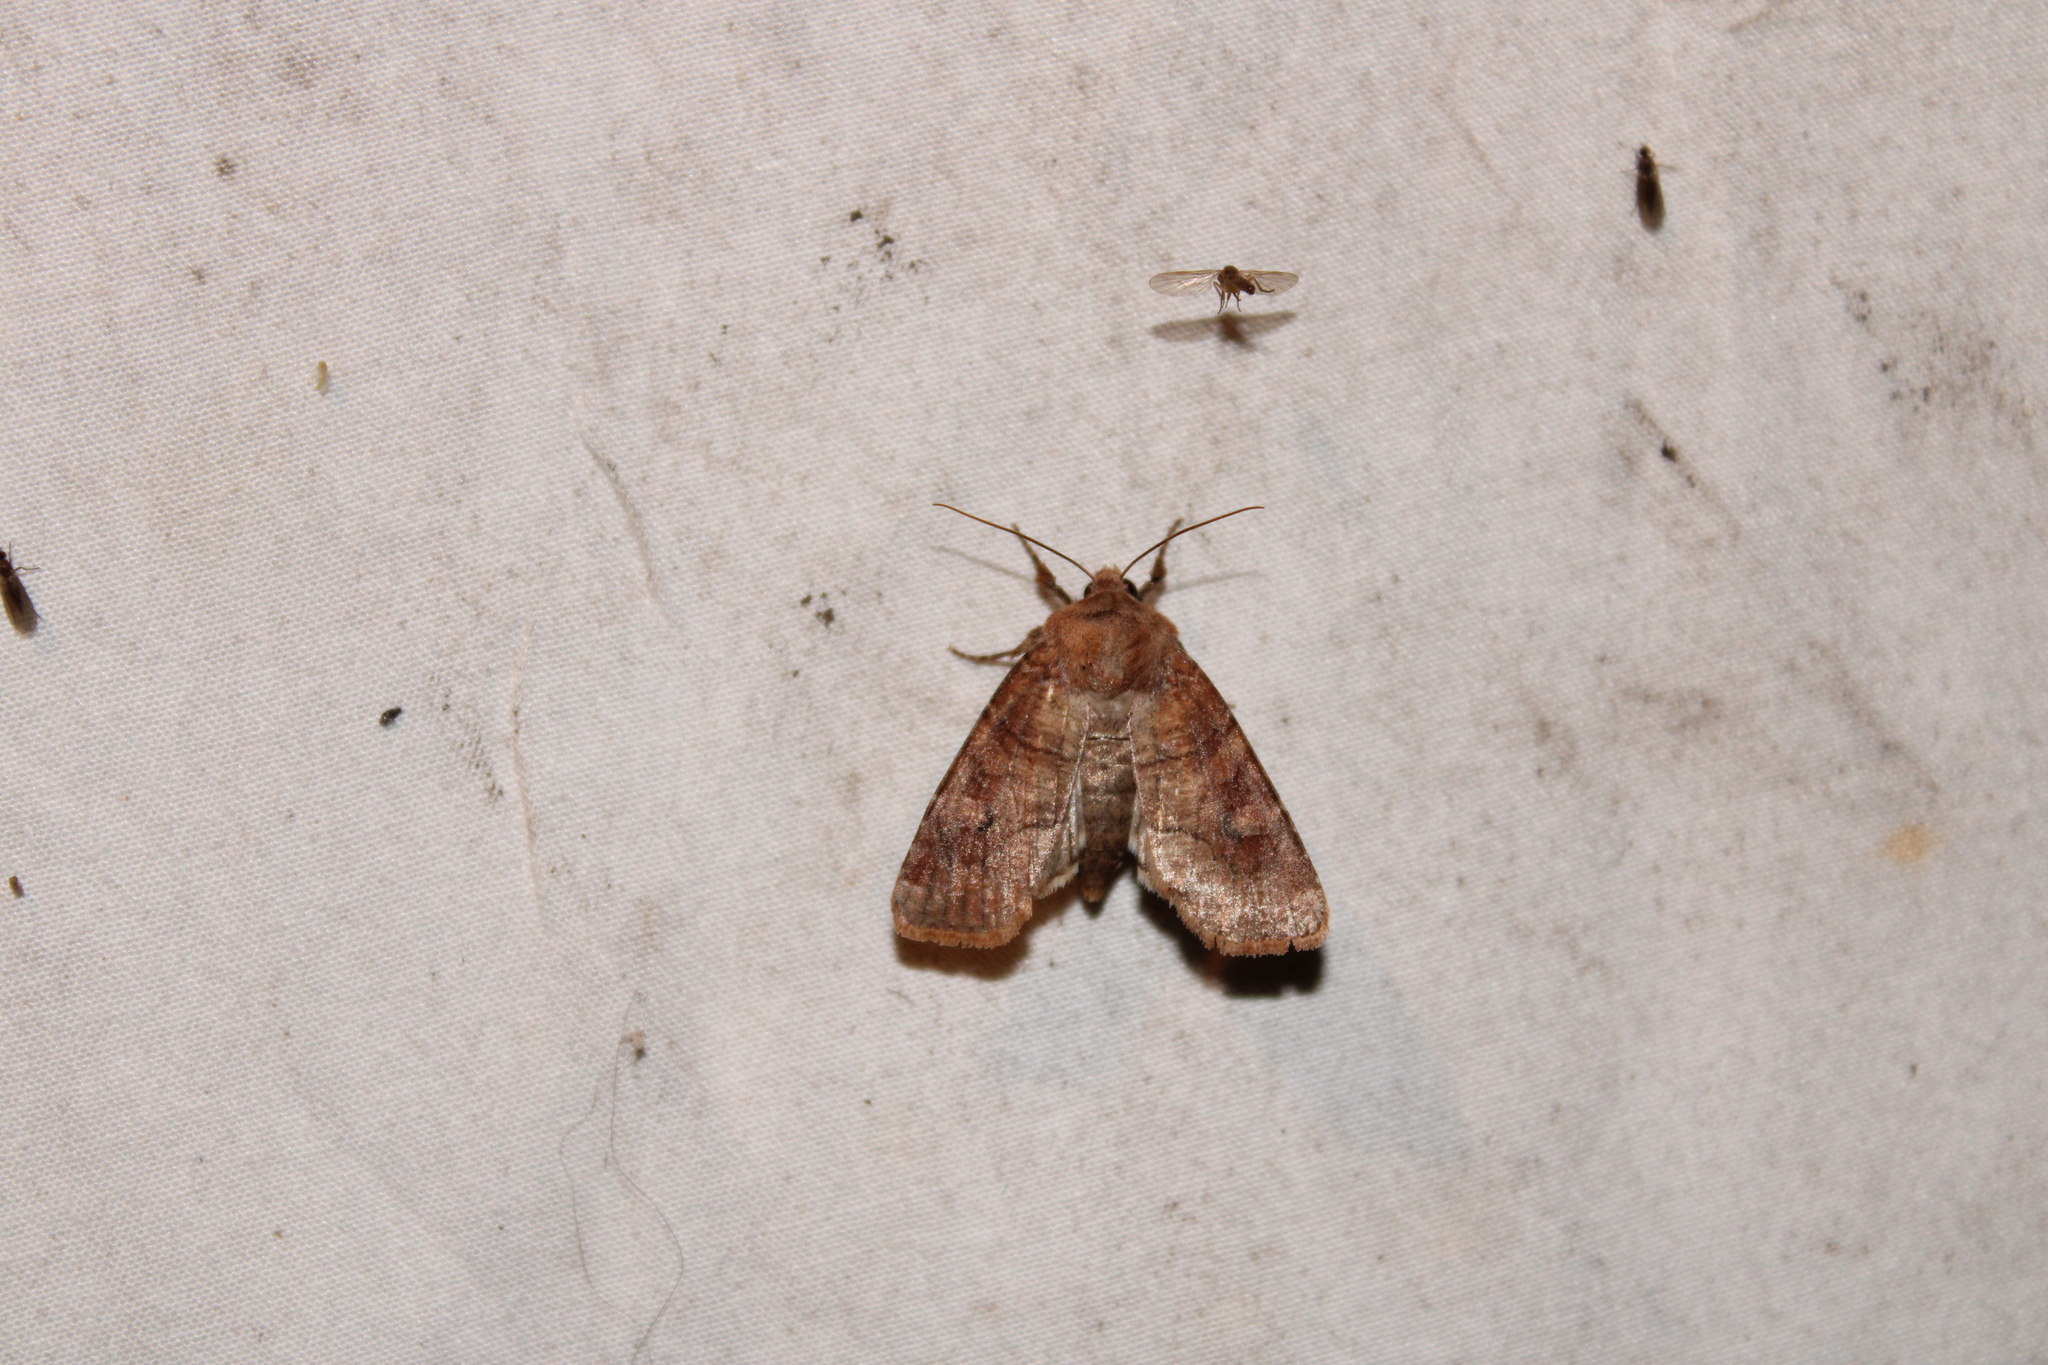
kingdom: Animalia
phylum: Arthropoda
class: Insecta
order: Lepidoptera
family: Noctuidae
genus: Crocigrapha
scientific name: Crocigrapha normani
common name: Norman's quaker
